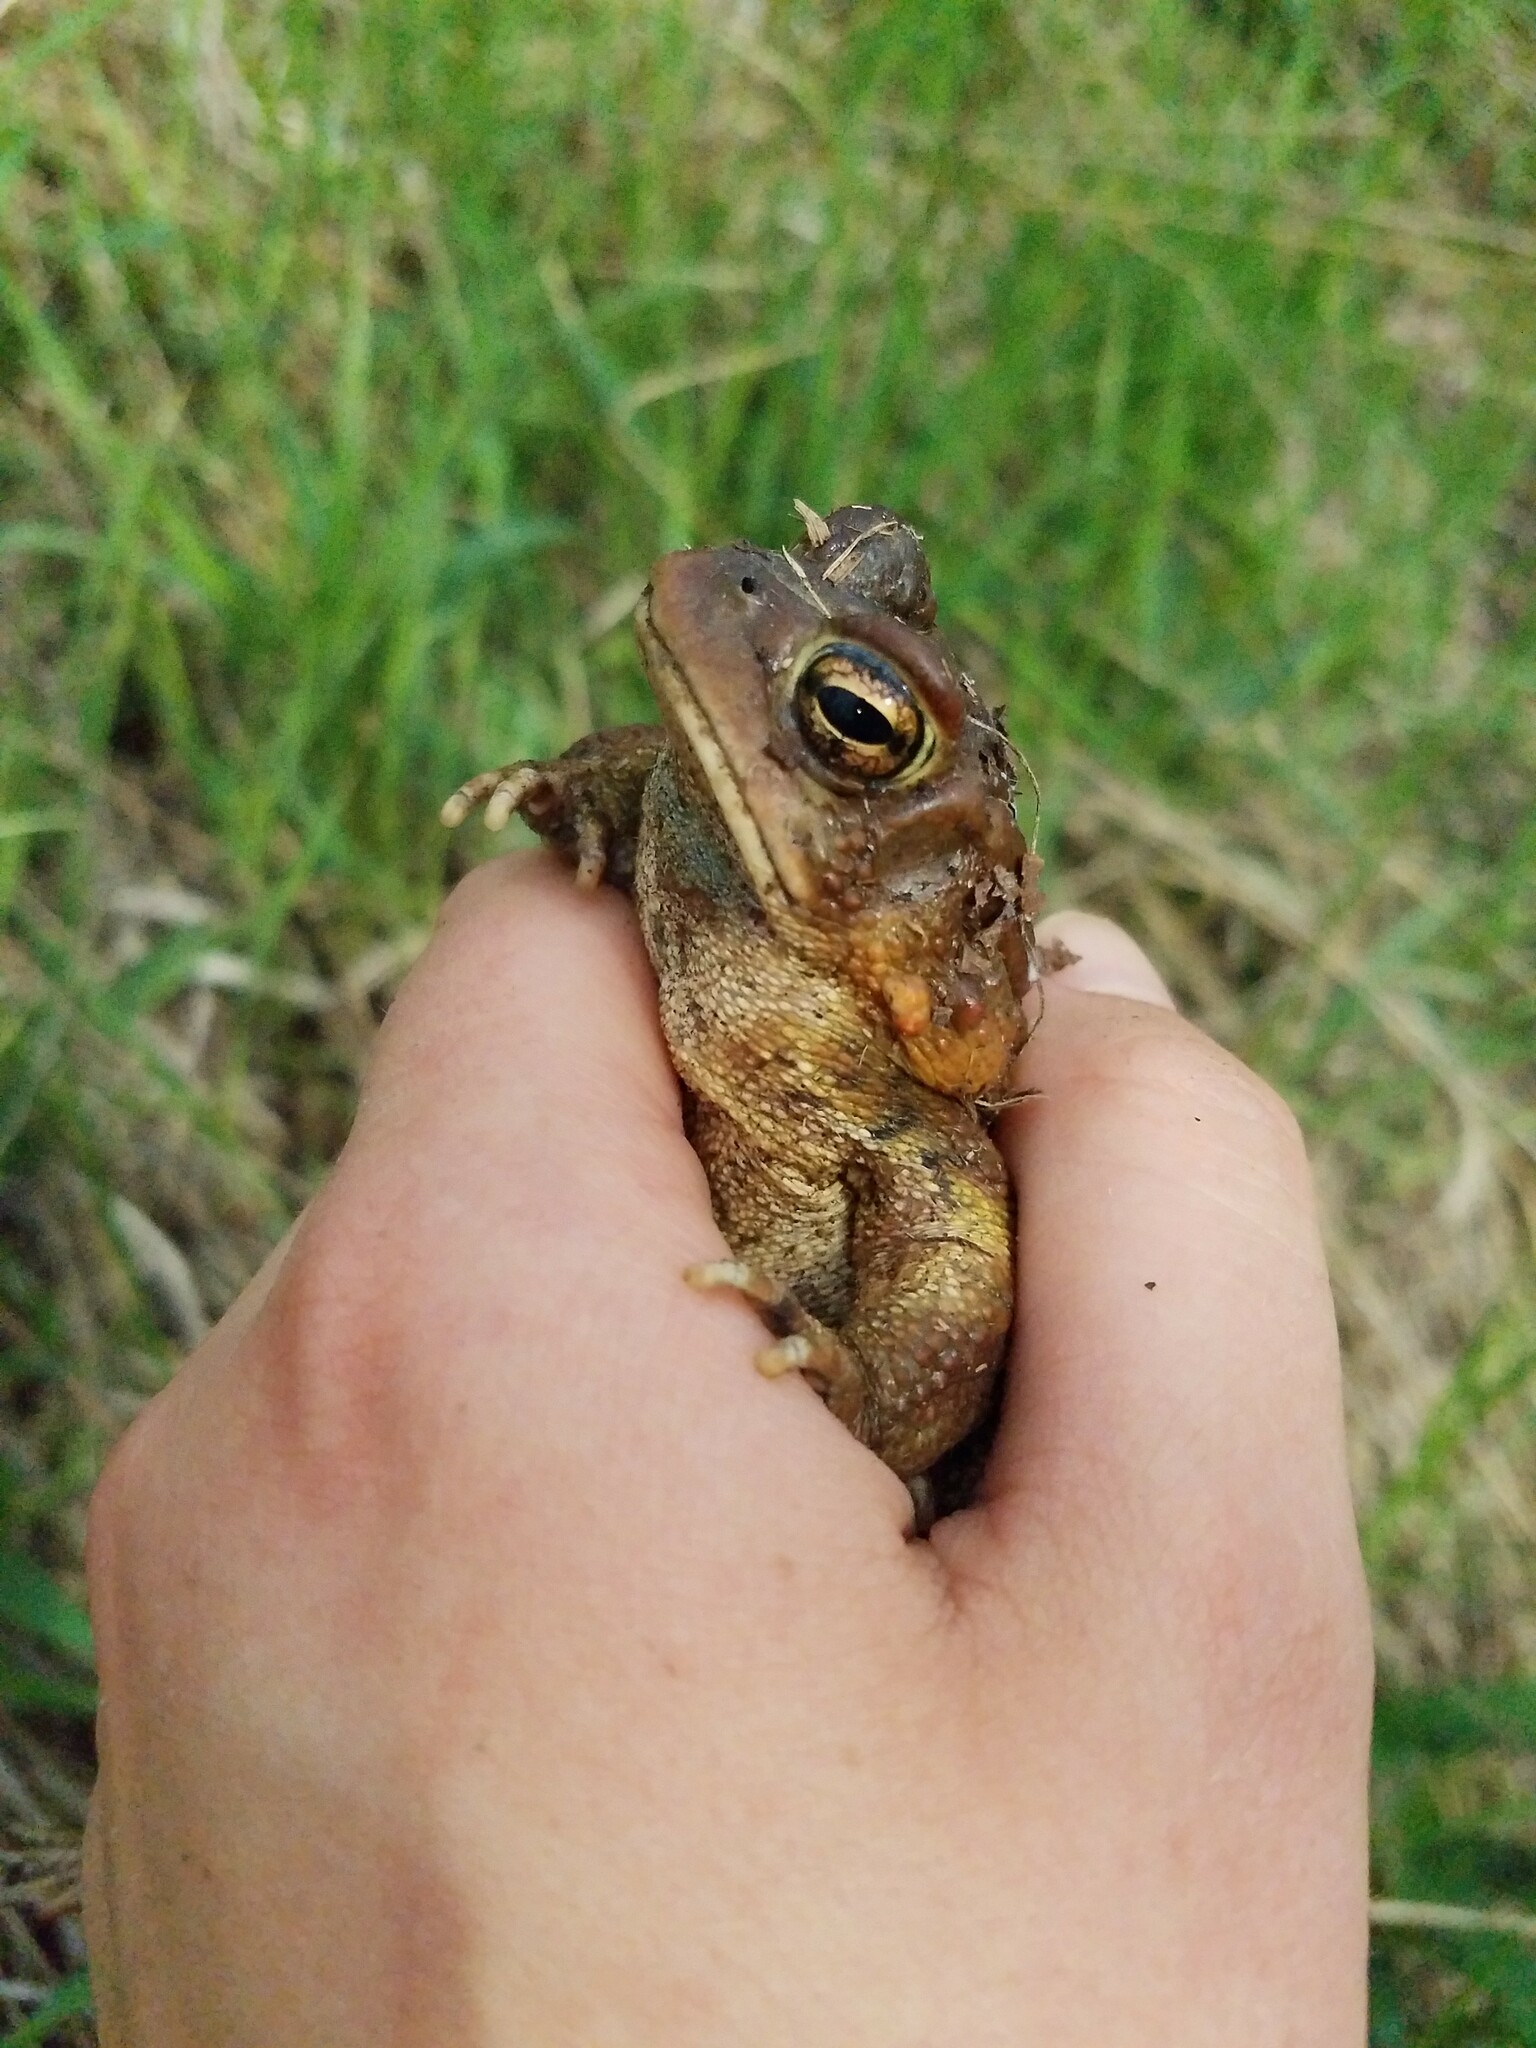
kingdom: Animalia
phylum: Chordata
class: Amphibia
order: Anura
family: Bufonidae
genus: Anaxyrus
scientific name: Anaxyrus americanus
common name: American toad
